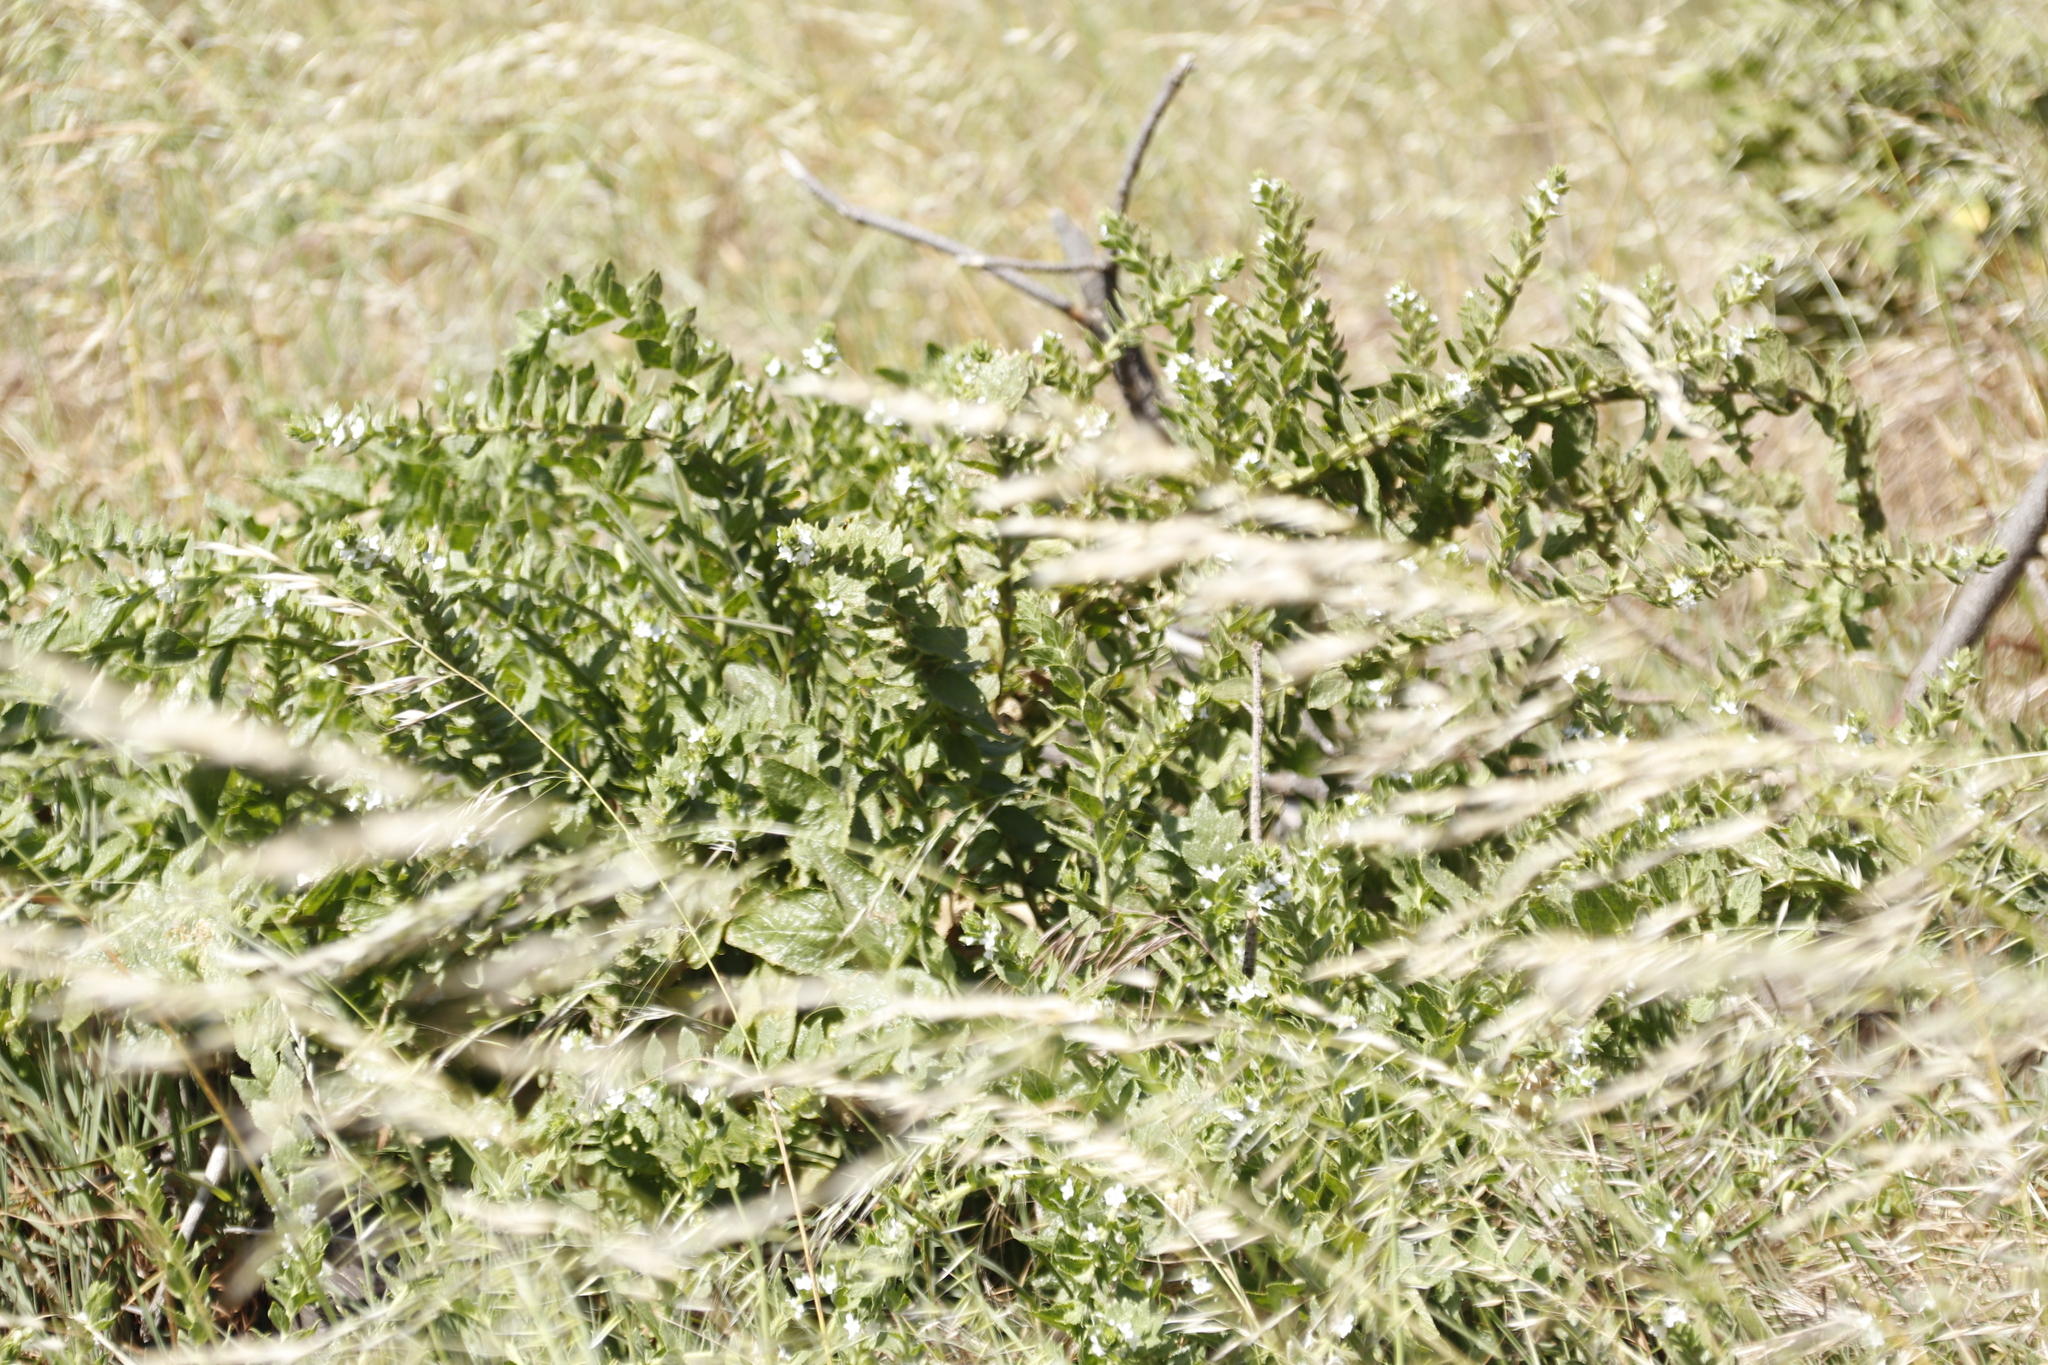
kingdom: Plantae
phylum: Tracheophyta
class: Magnoliopsida
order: Lamiales
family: Scrophulariaceae
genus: Oftia
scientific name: Oftia africana
